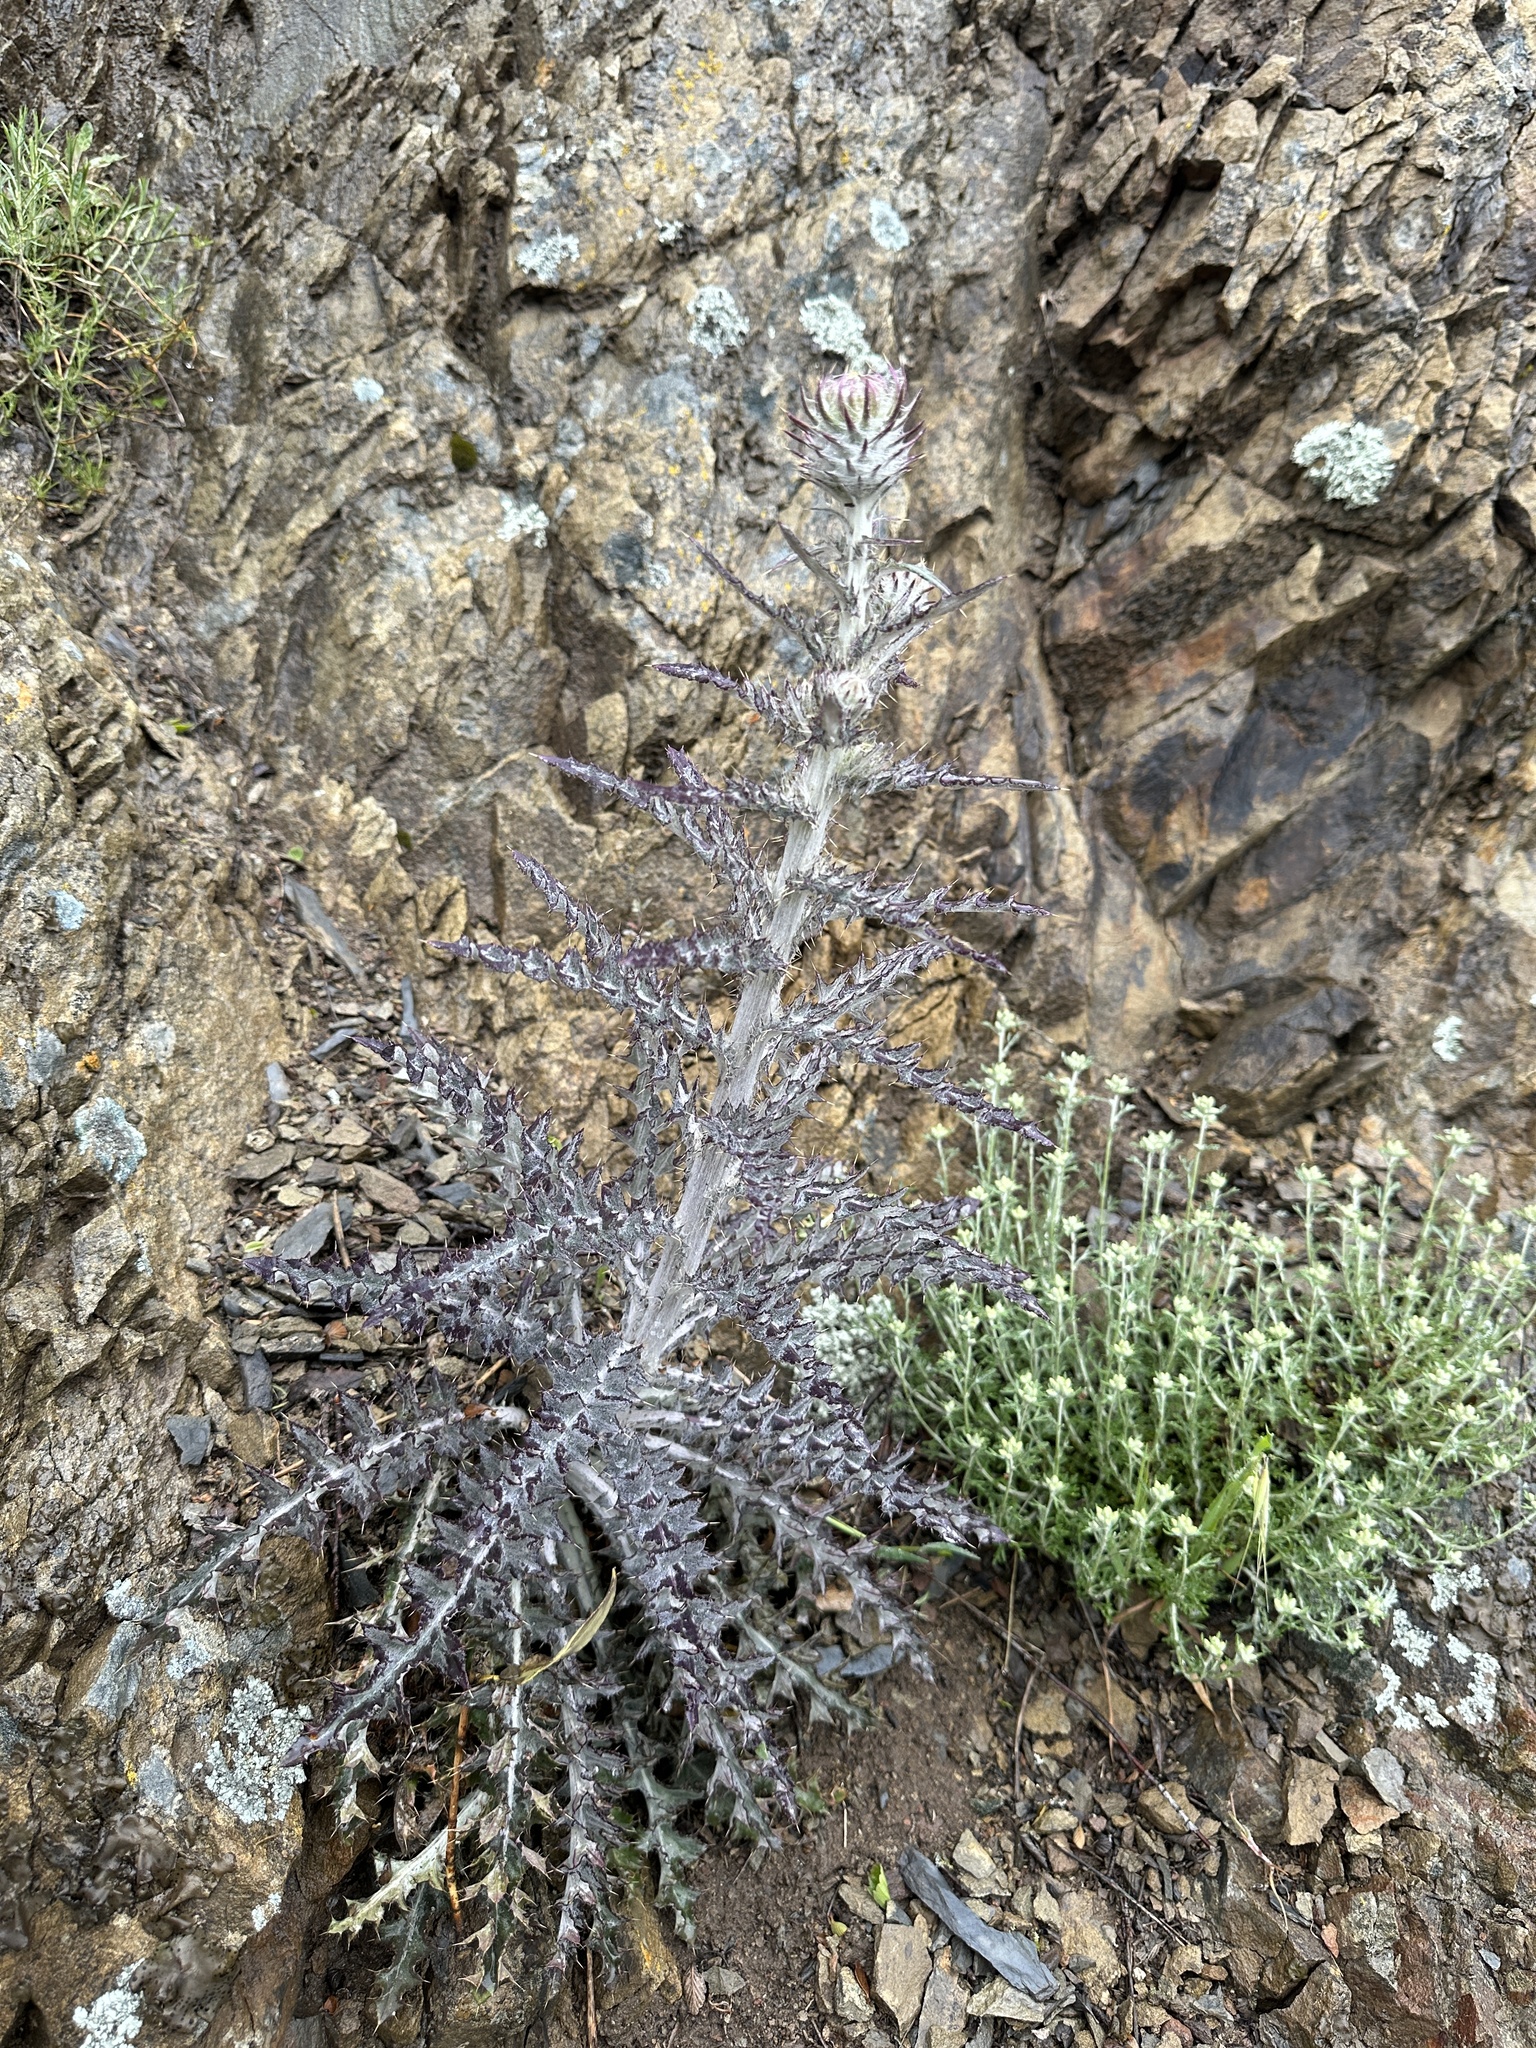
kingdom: Plantae
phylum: Tracheophyta
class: Magnoliopsida
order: Asterales
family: Asteraceae
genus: Cirsium
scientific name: Cirsium occidentale
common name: Western thistle
